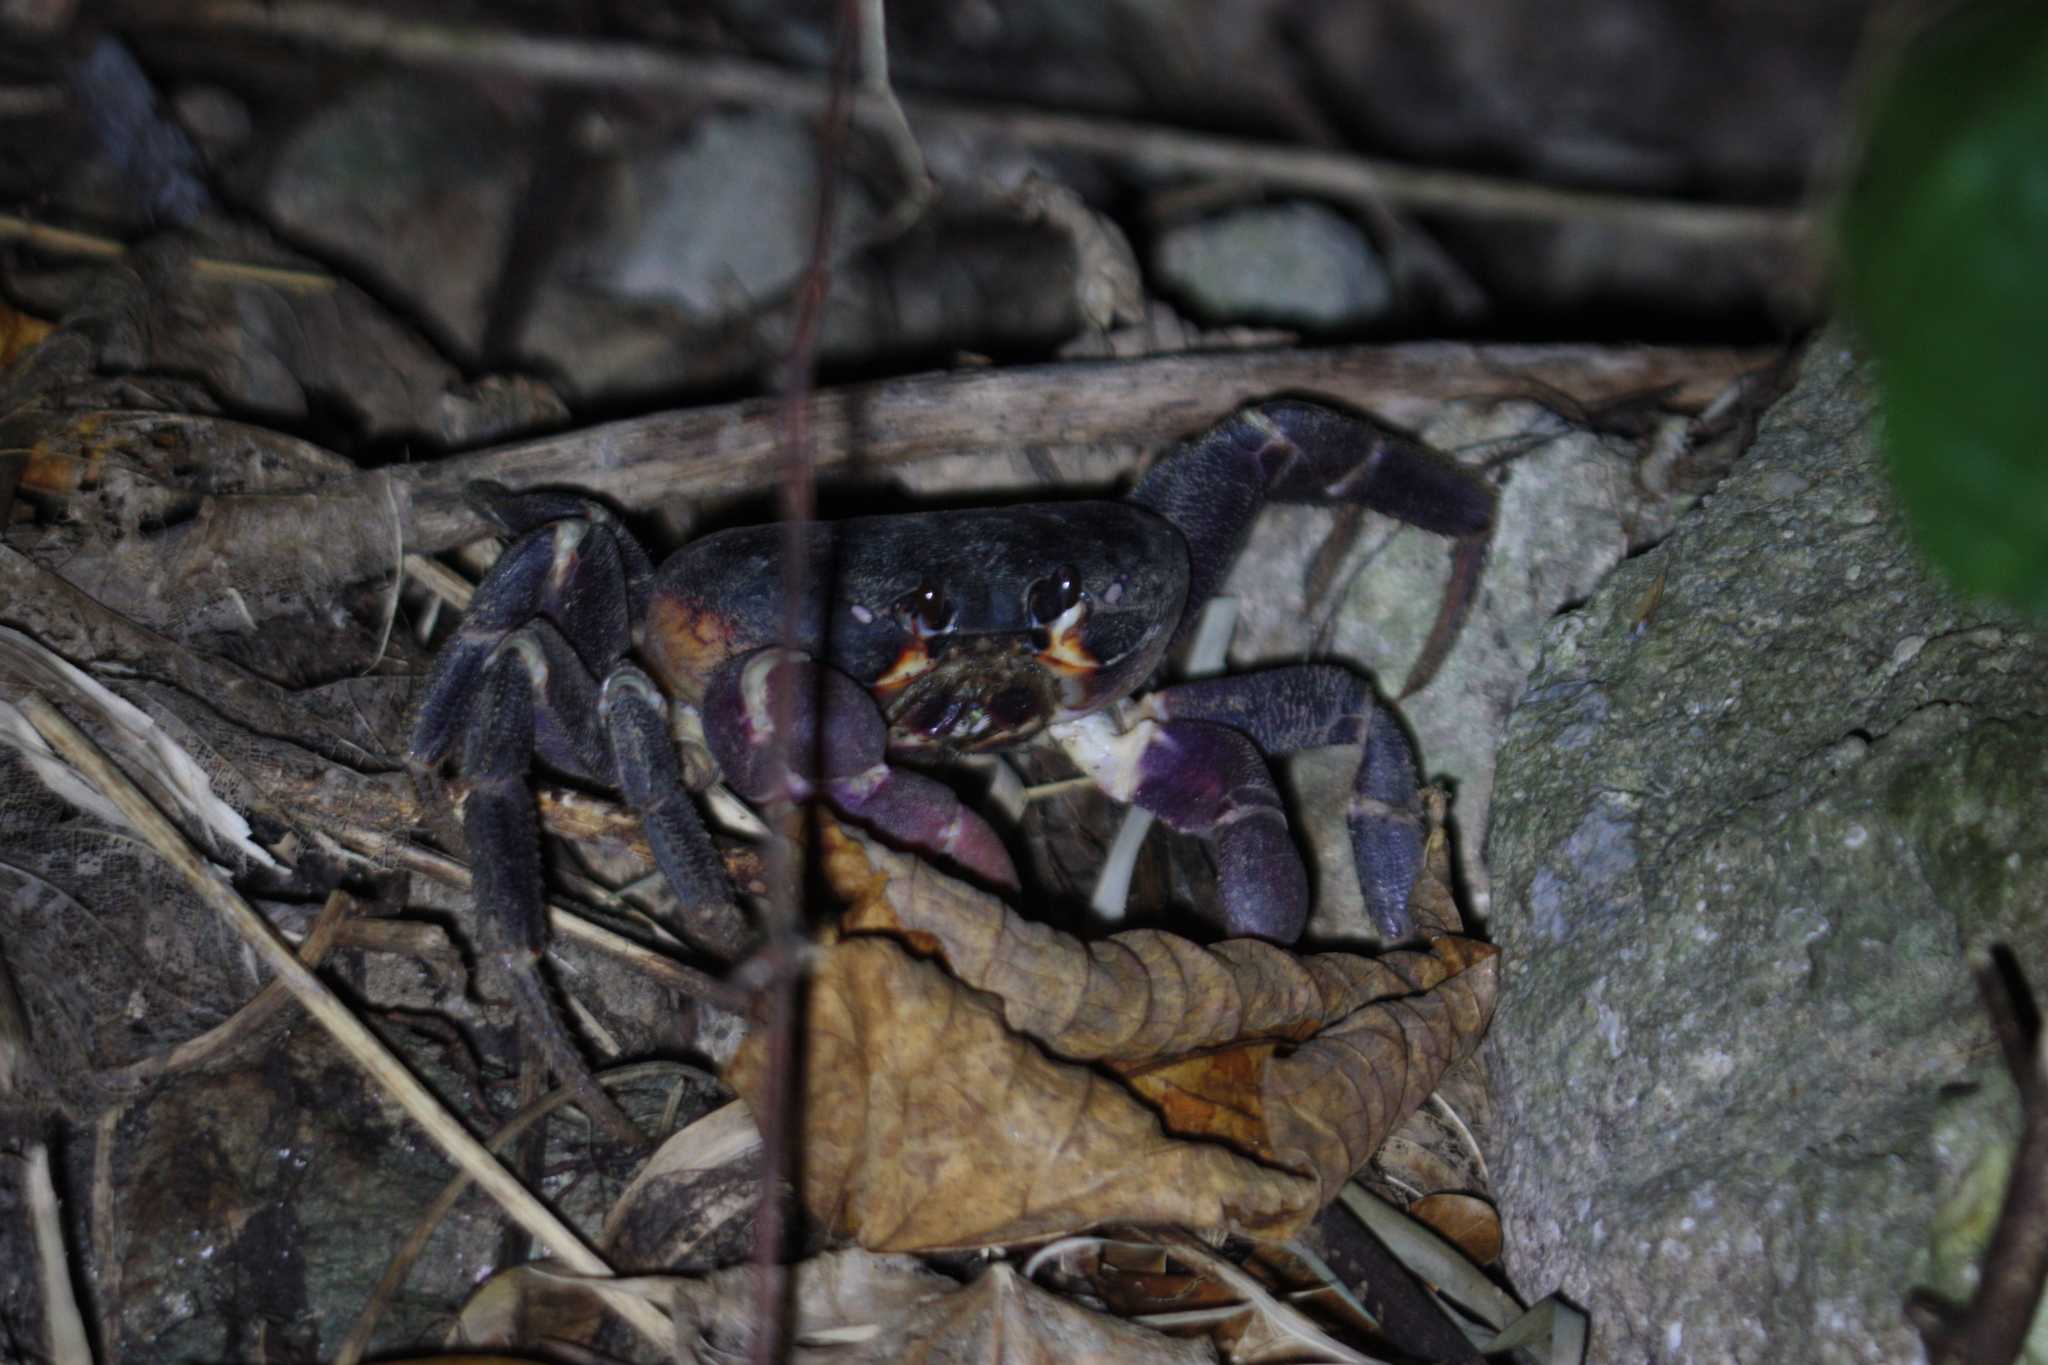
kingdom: Animalia
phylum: Arthropoda
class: Malacostraca
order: Decapoda
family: Gecarcinidae
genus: Gecarcoidea
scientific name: Gecarcoidea lalandii
